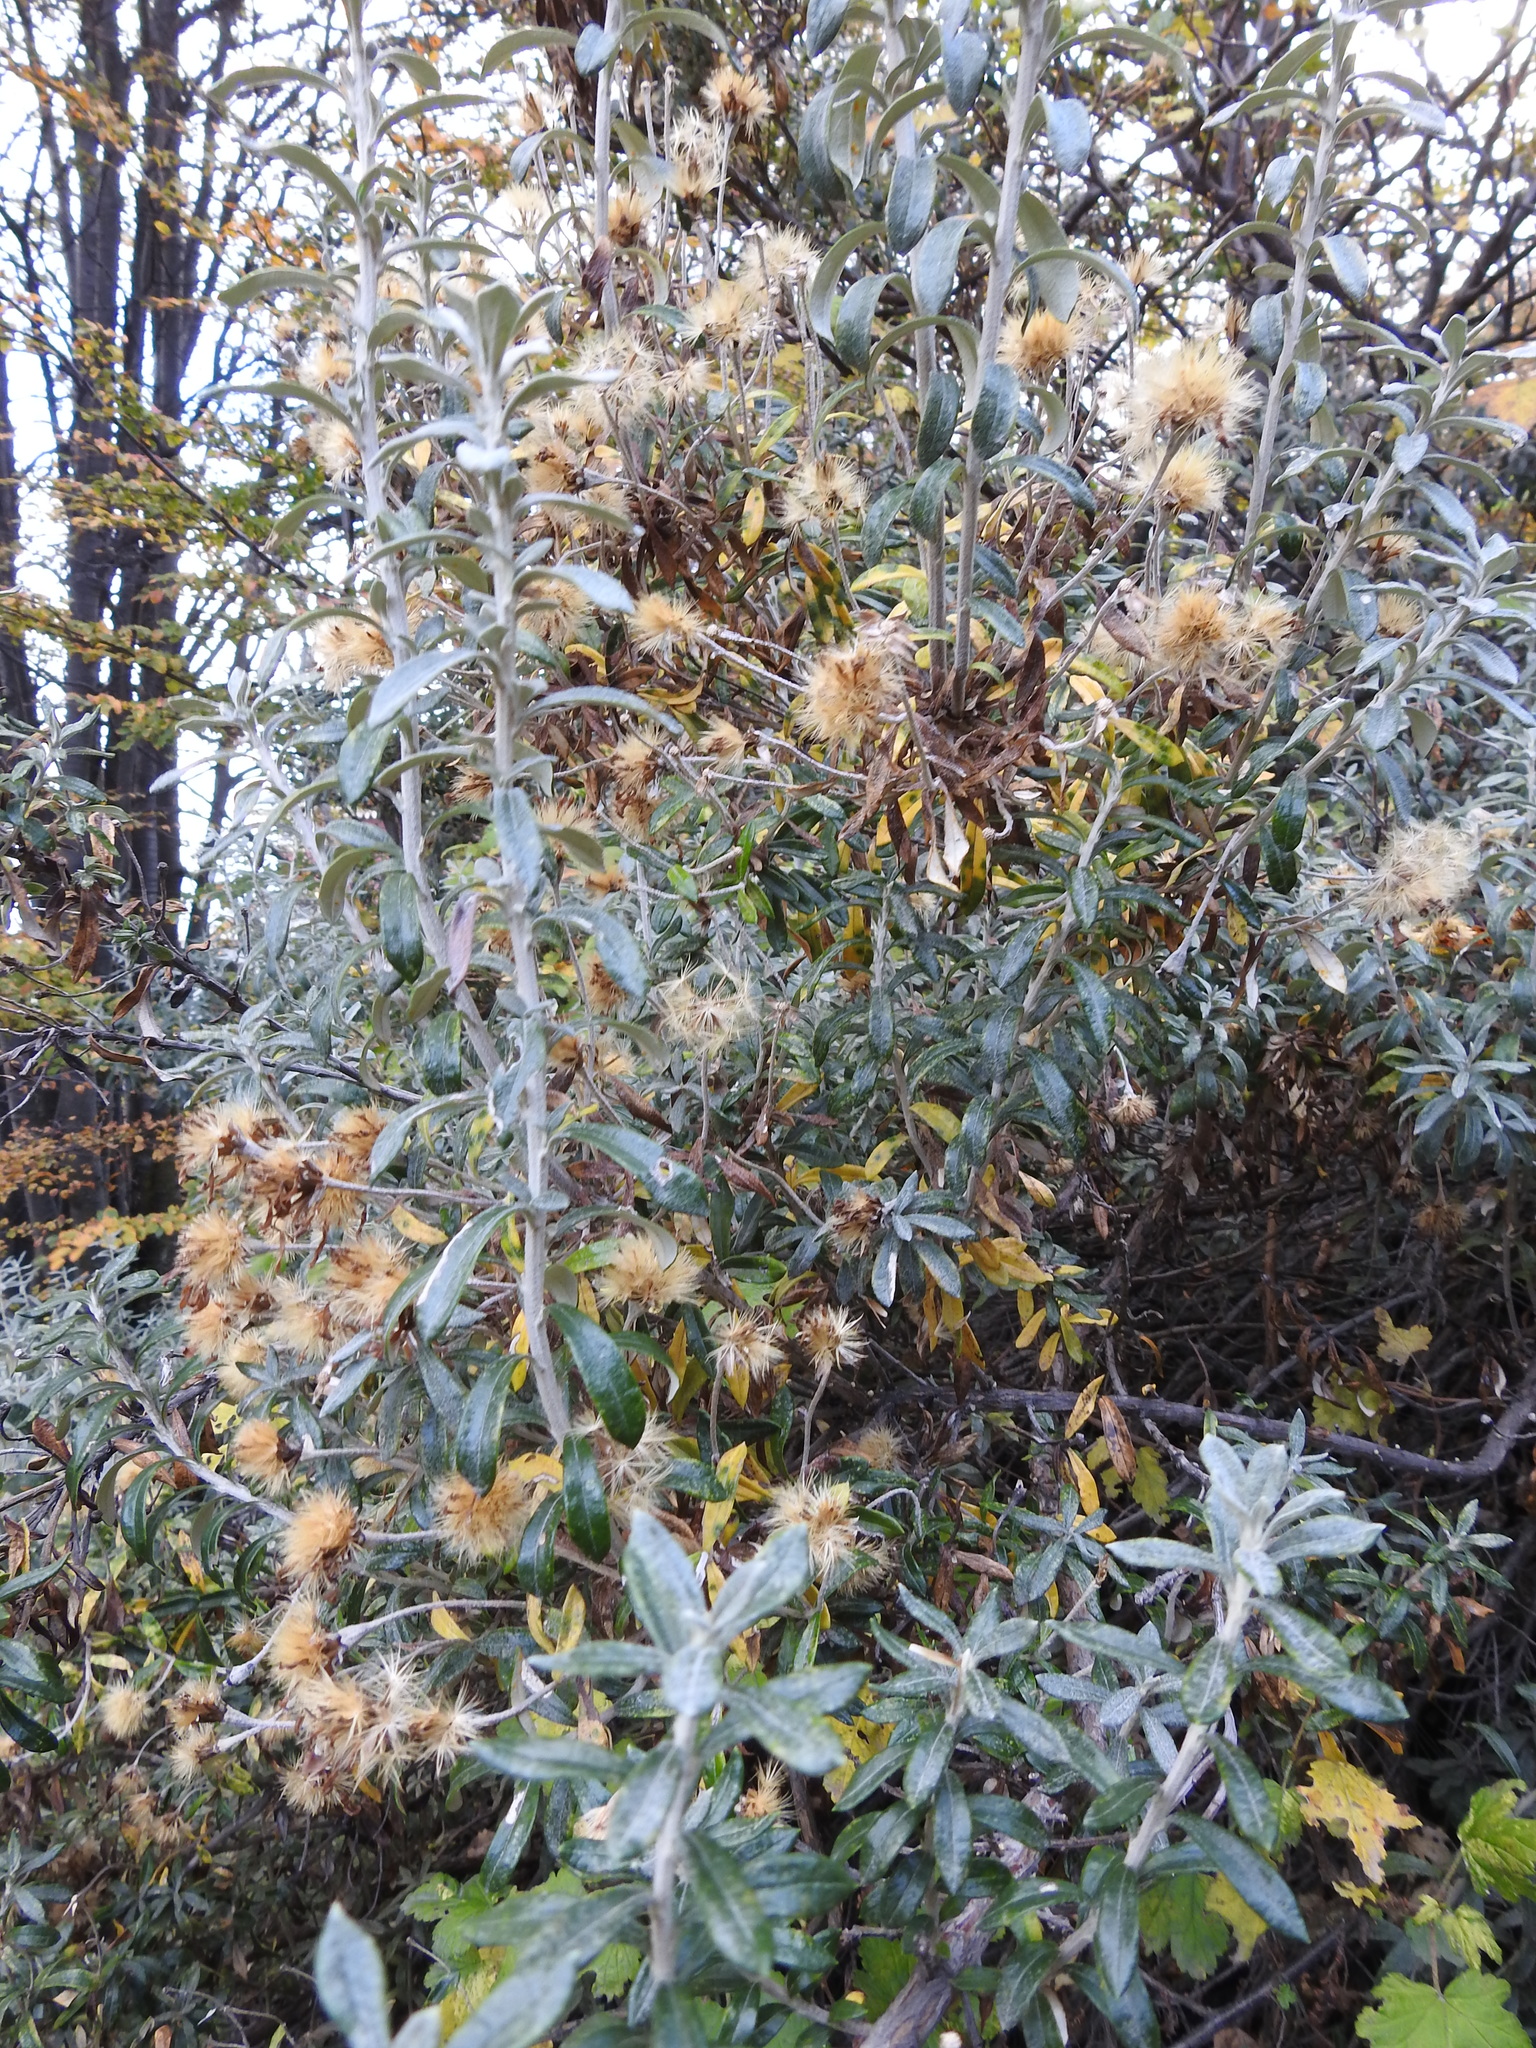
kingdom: Plantae
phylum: Tracheophyta
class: Magnoliopsida
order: Asterales
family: Asteraceae
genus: Chiliotrichum
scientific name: Chiliotrichum diffusum
